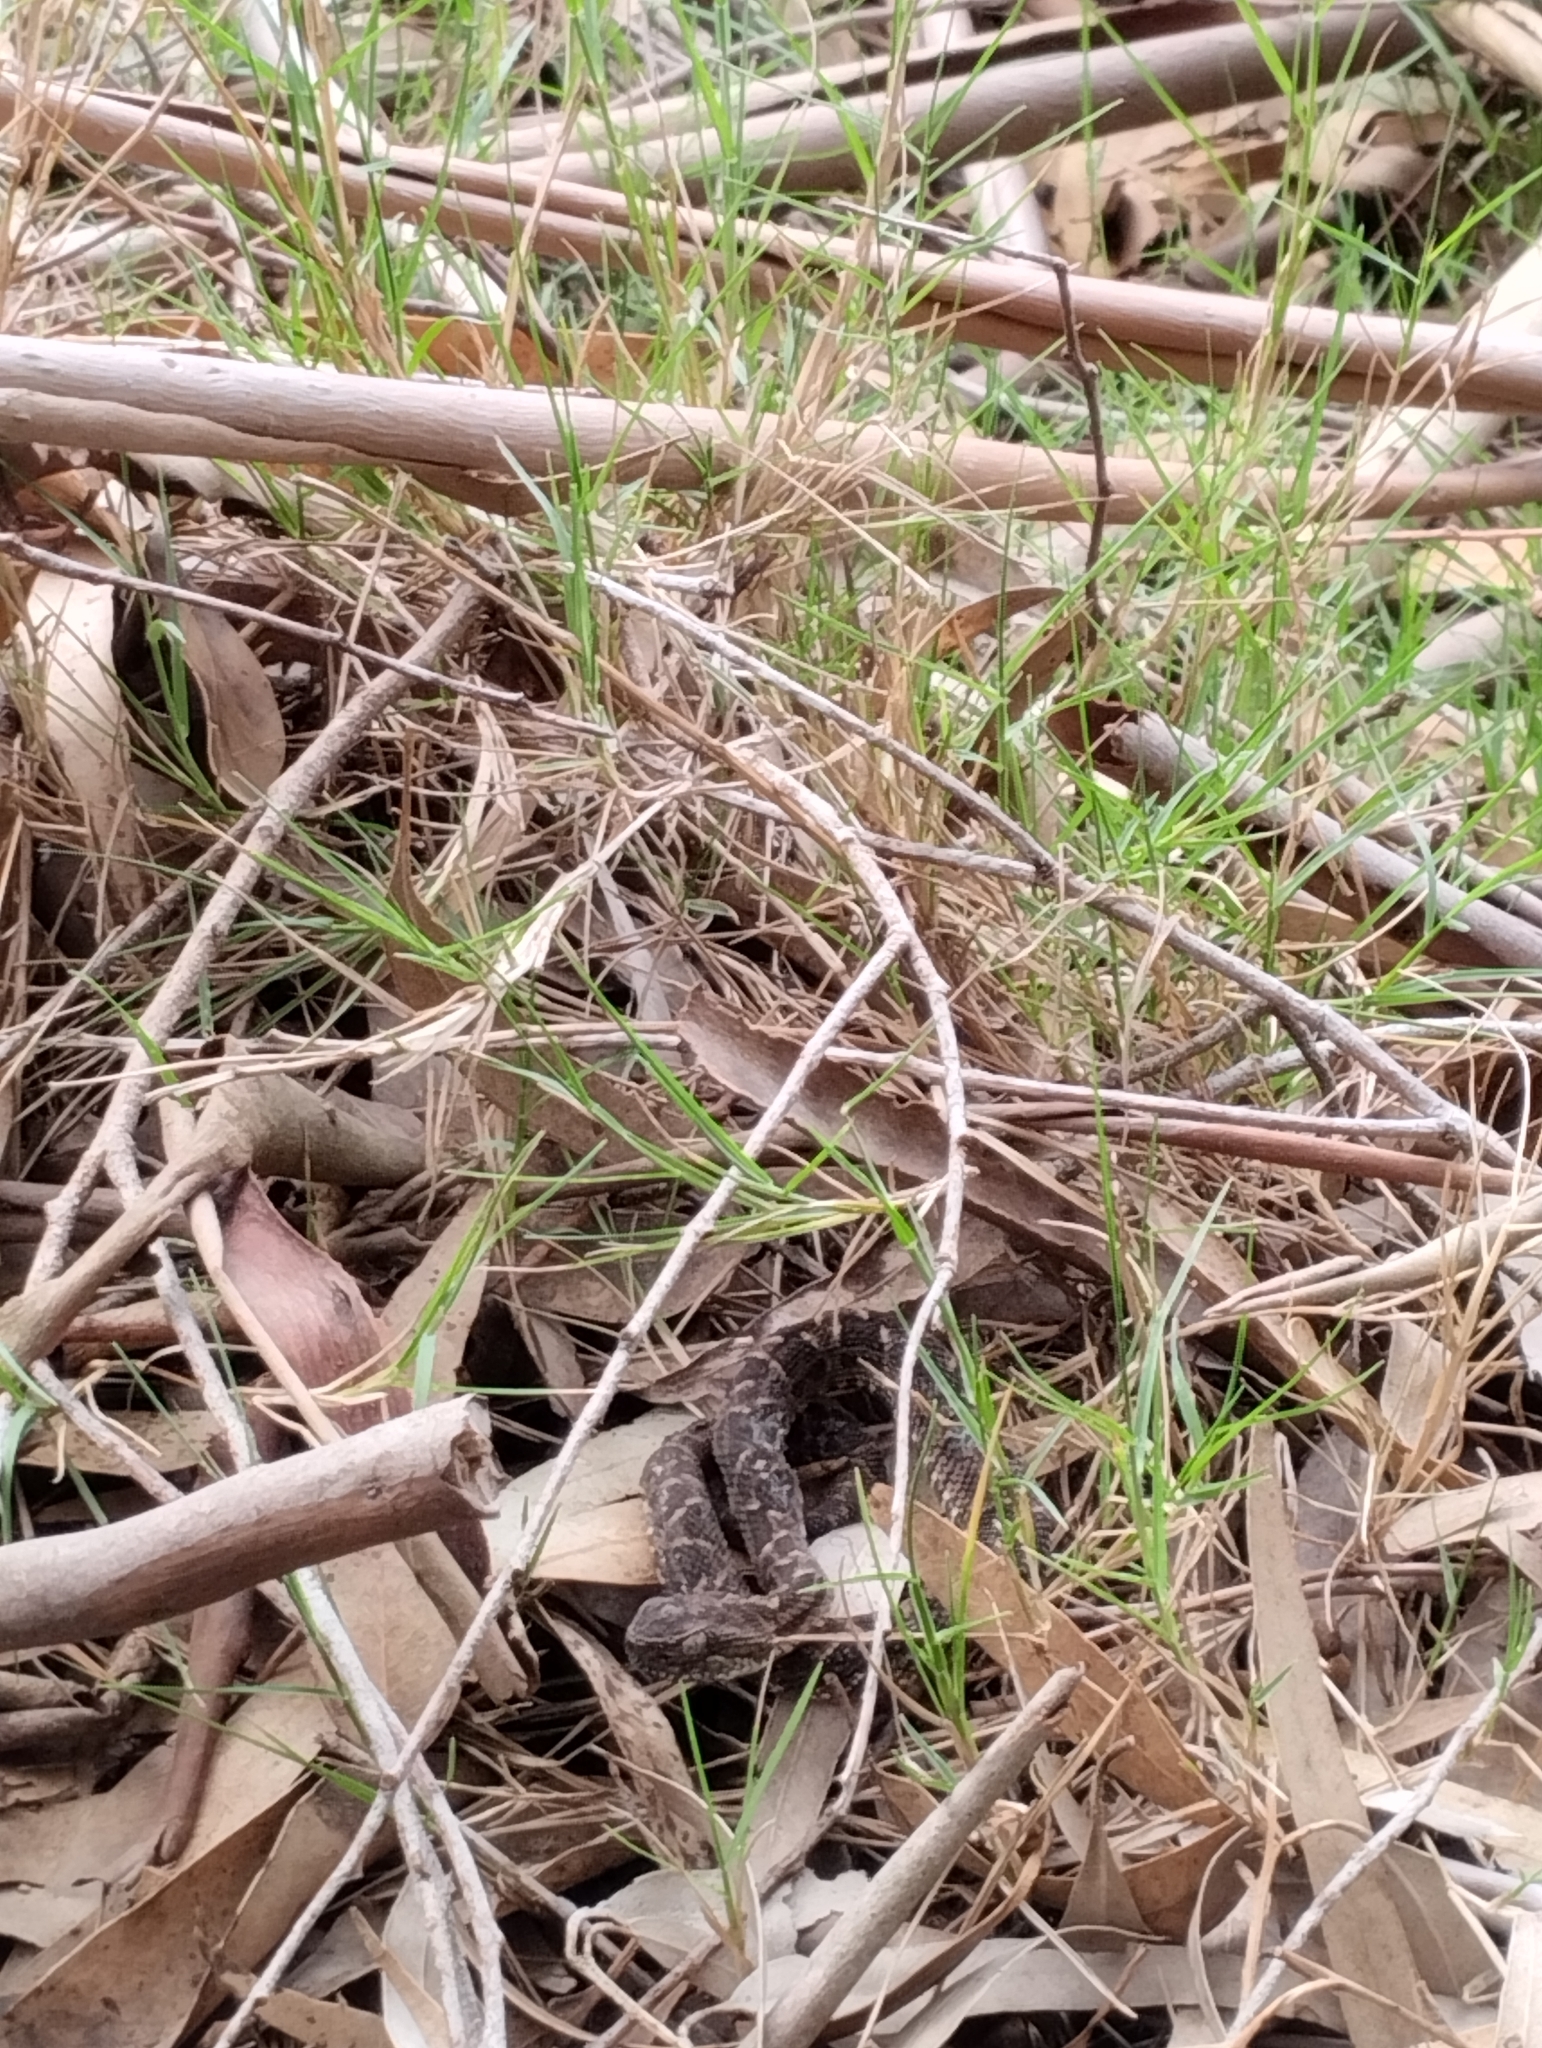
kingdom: Animalia
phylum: Chordata
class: Squamata
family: Viperidae
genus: Bothrops
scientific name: Bothrops pubescens
